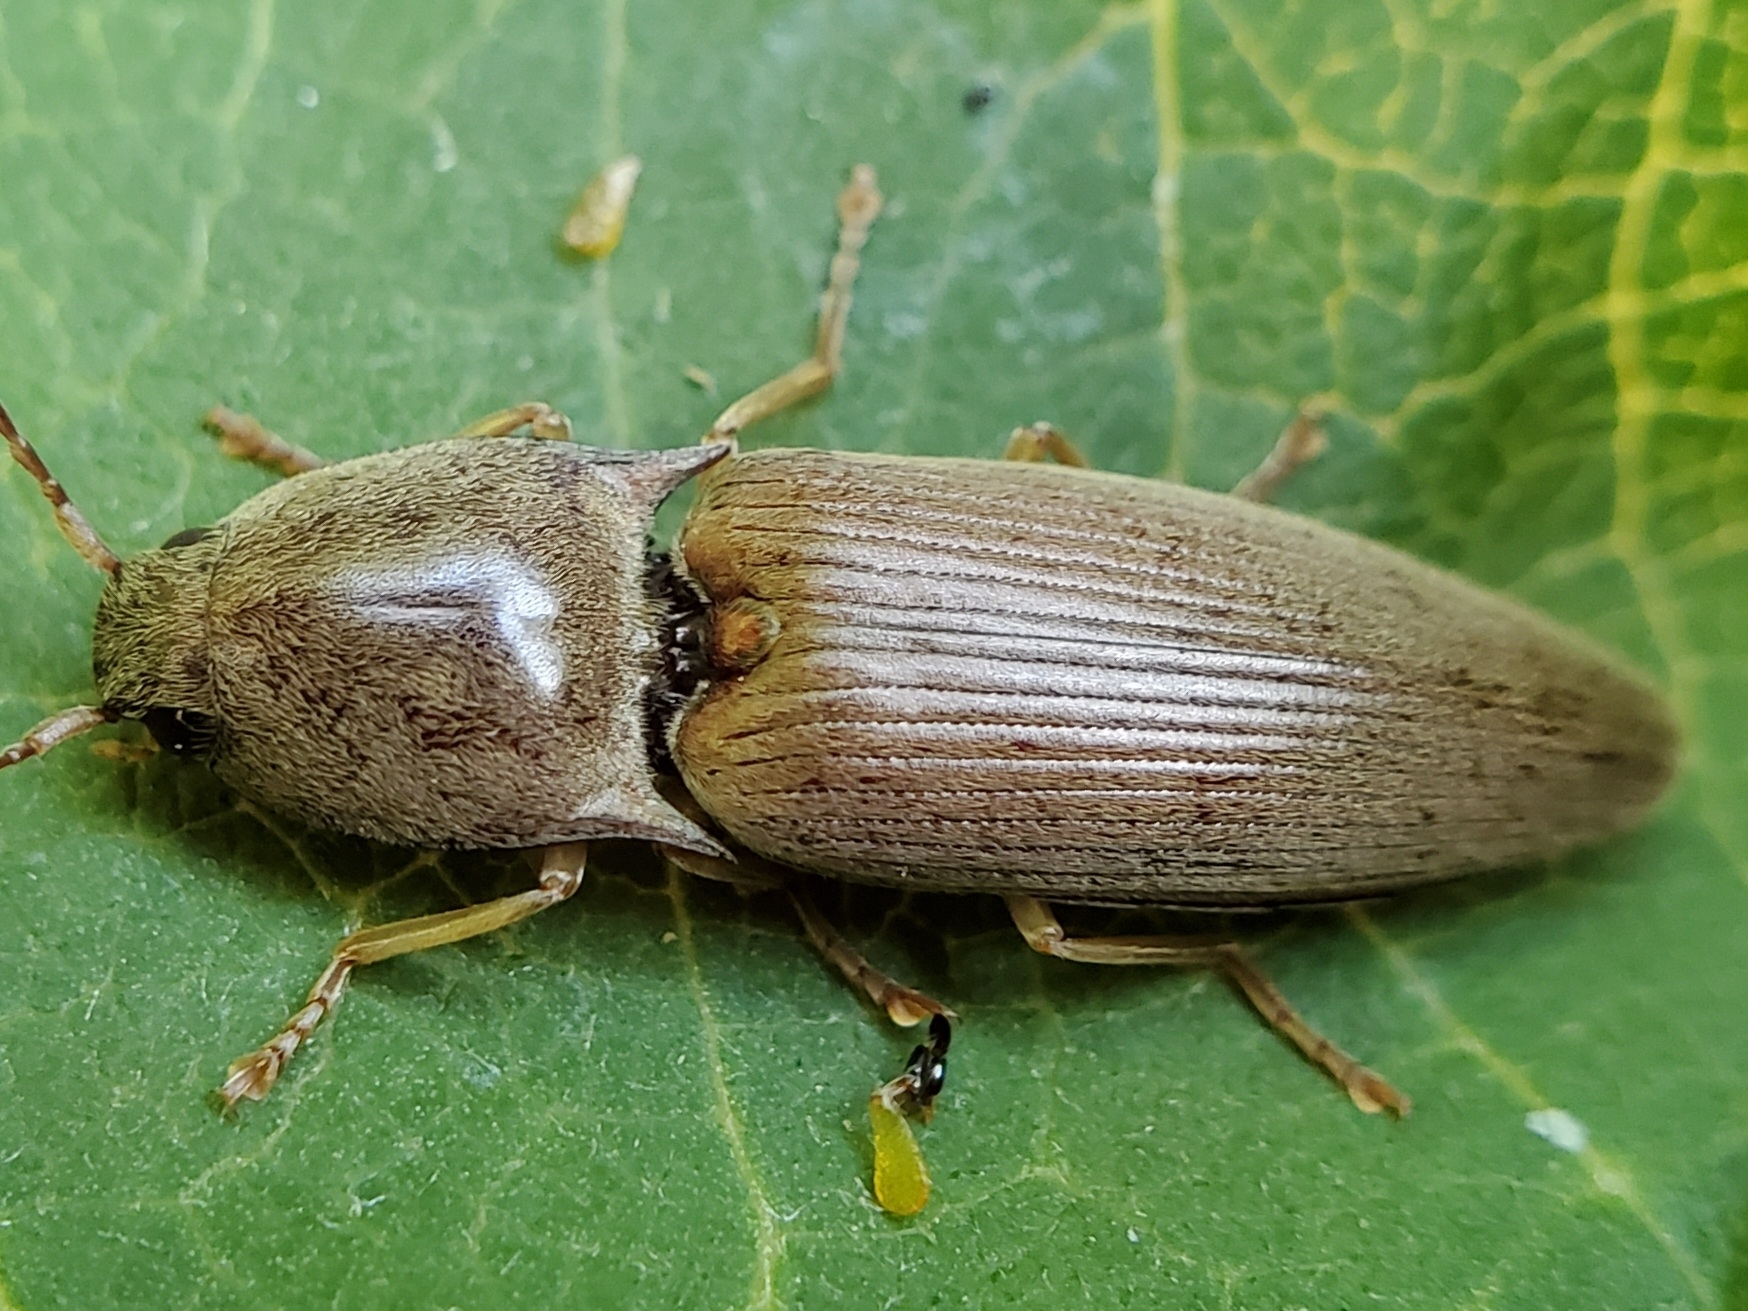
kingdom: Animalia
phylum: Arthropoda
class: Insecta
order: Coleoptera
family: Elateridae
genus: Monocrepidius
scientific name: Monocrepidius lividus
